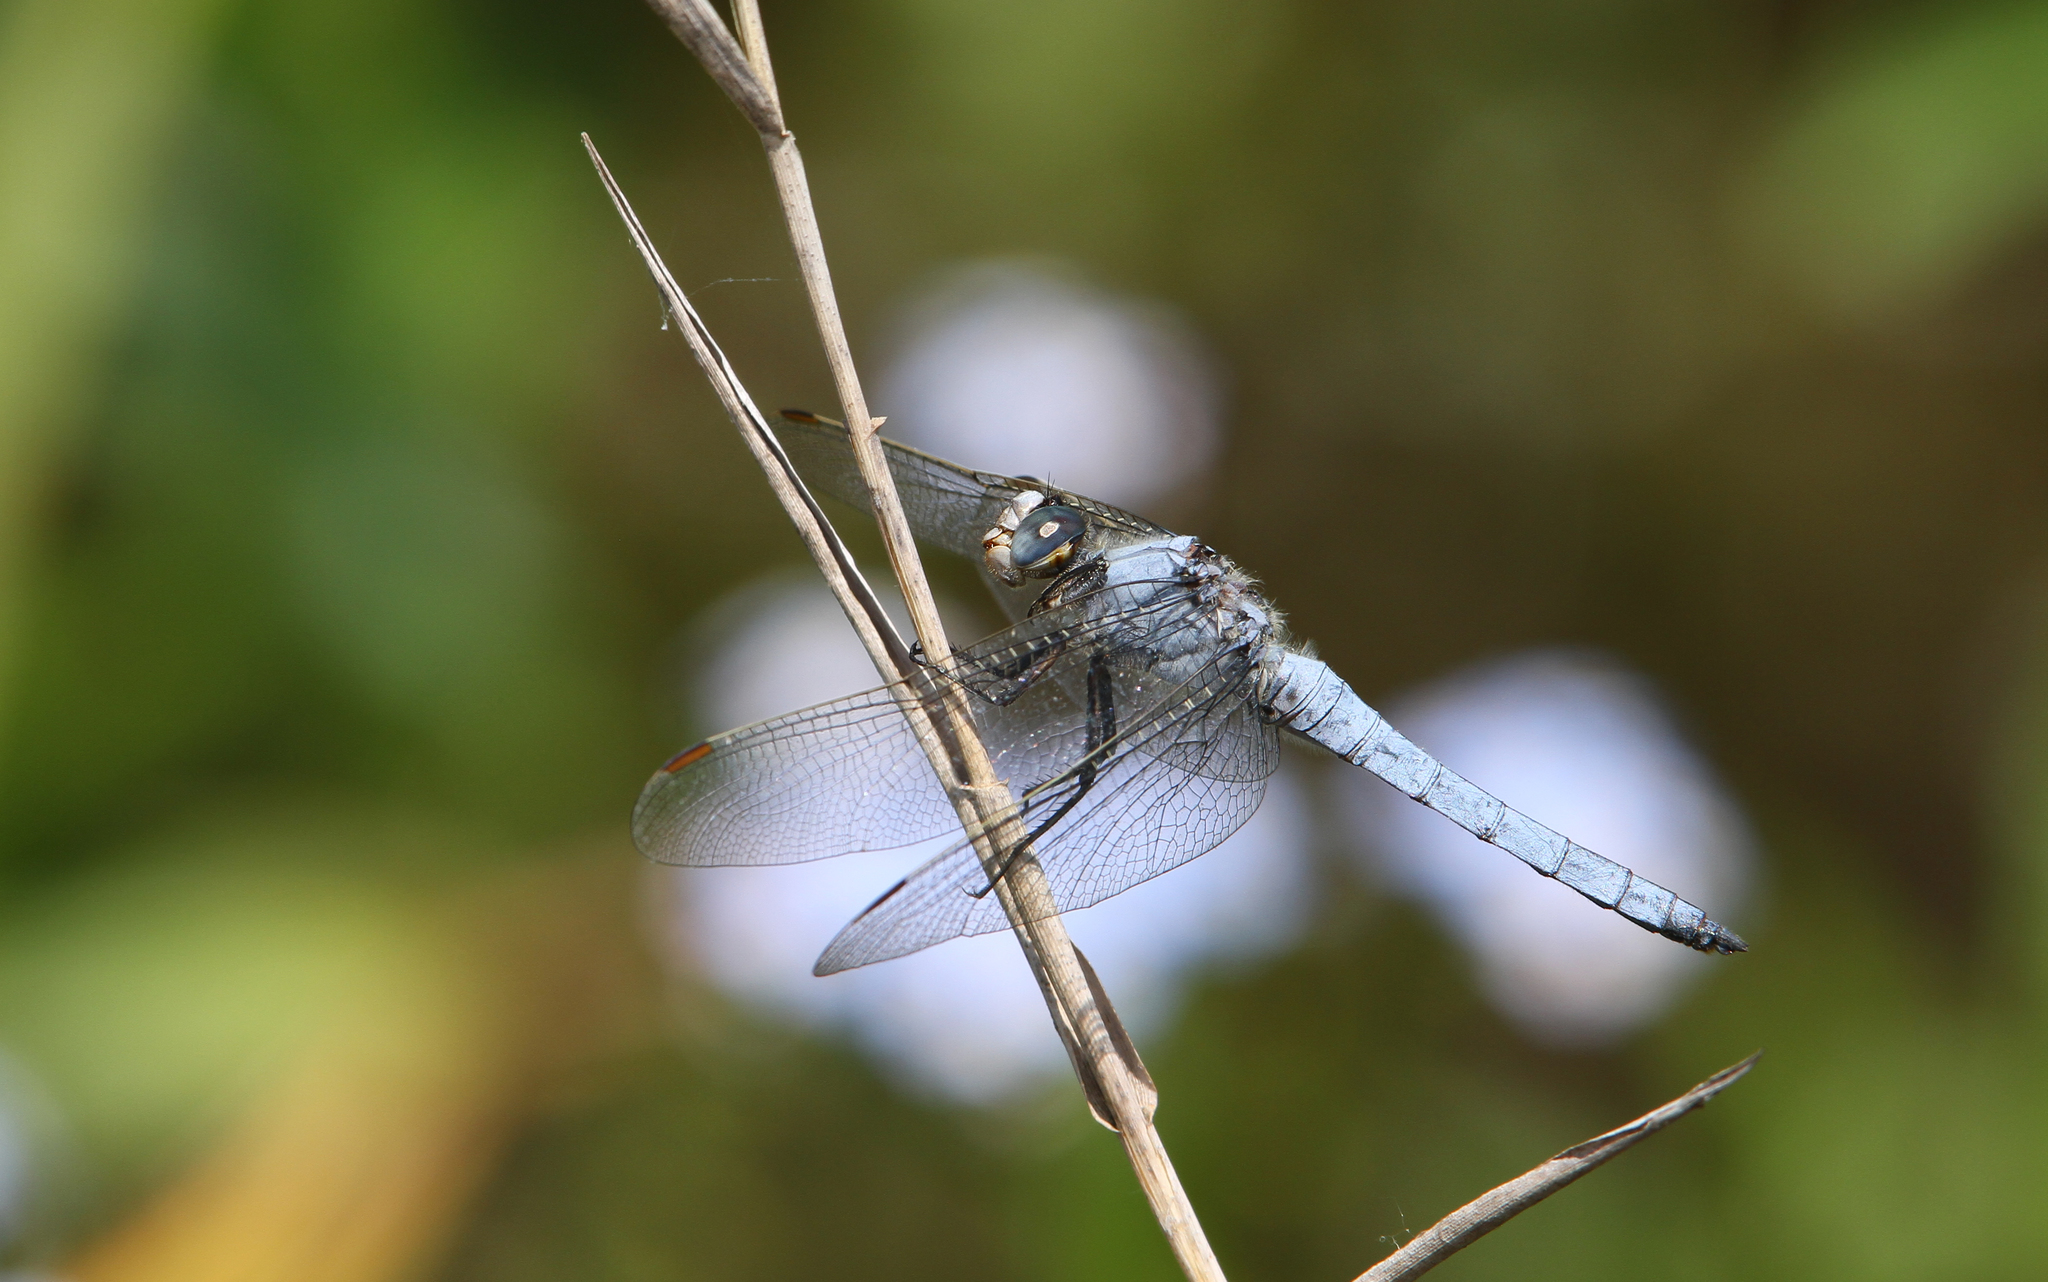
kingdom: Animalia
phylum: Arthropoda
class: Insecta
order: Odonata
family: Libellulidae
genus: Orthetrum
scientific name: Orthetrum brunneum
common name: Southern skimmer
